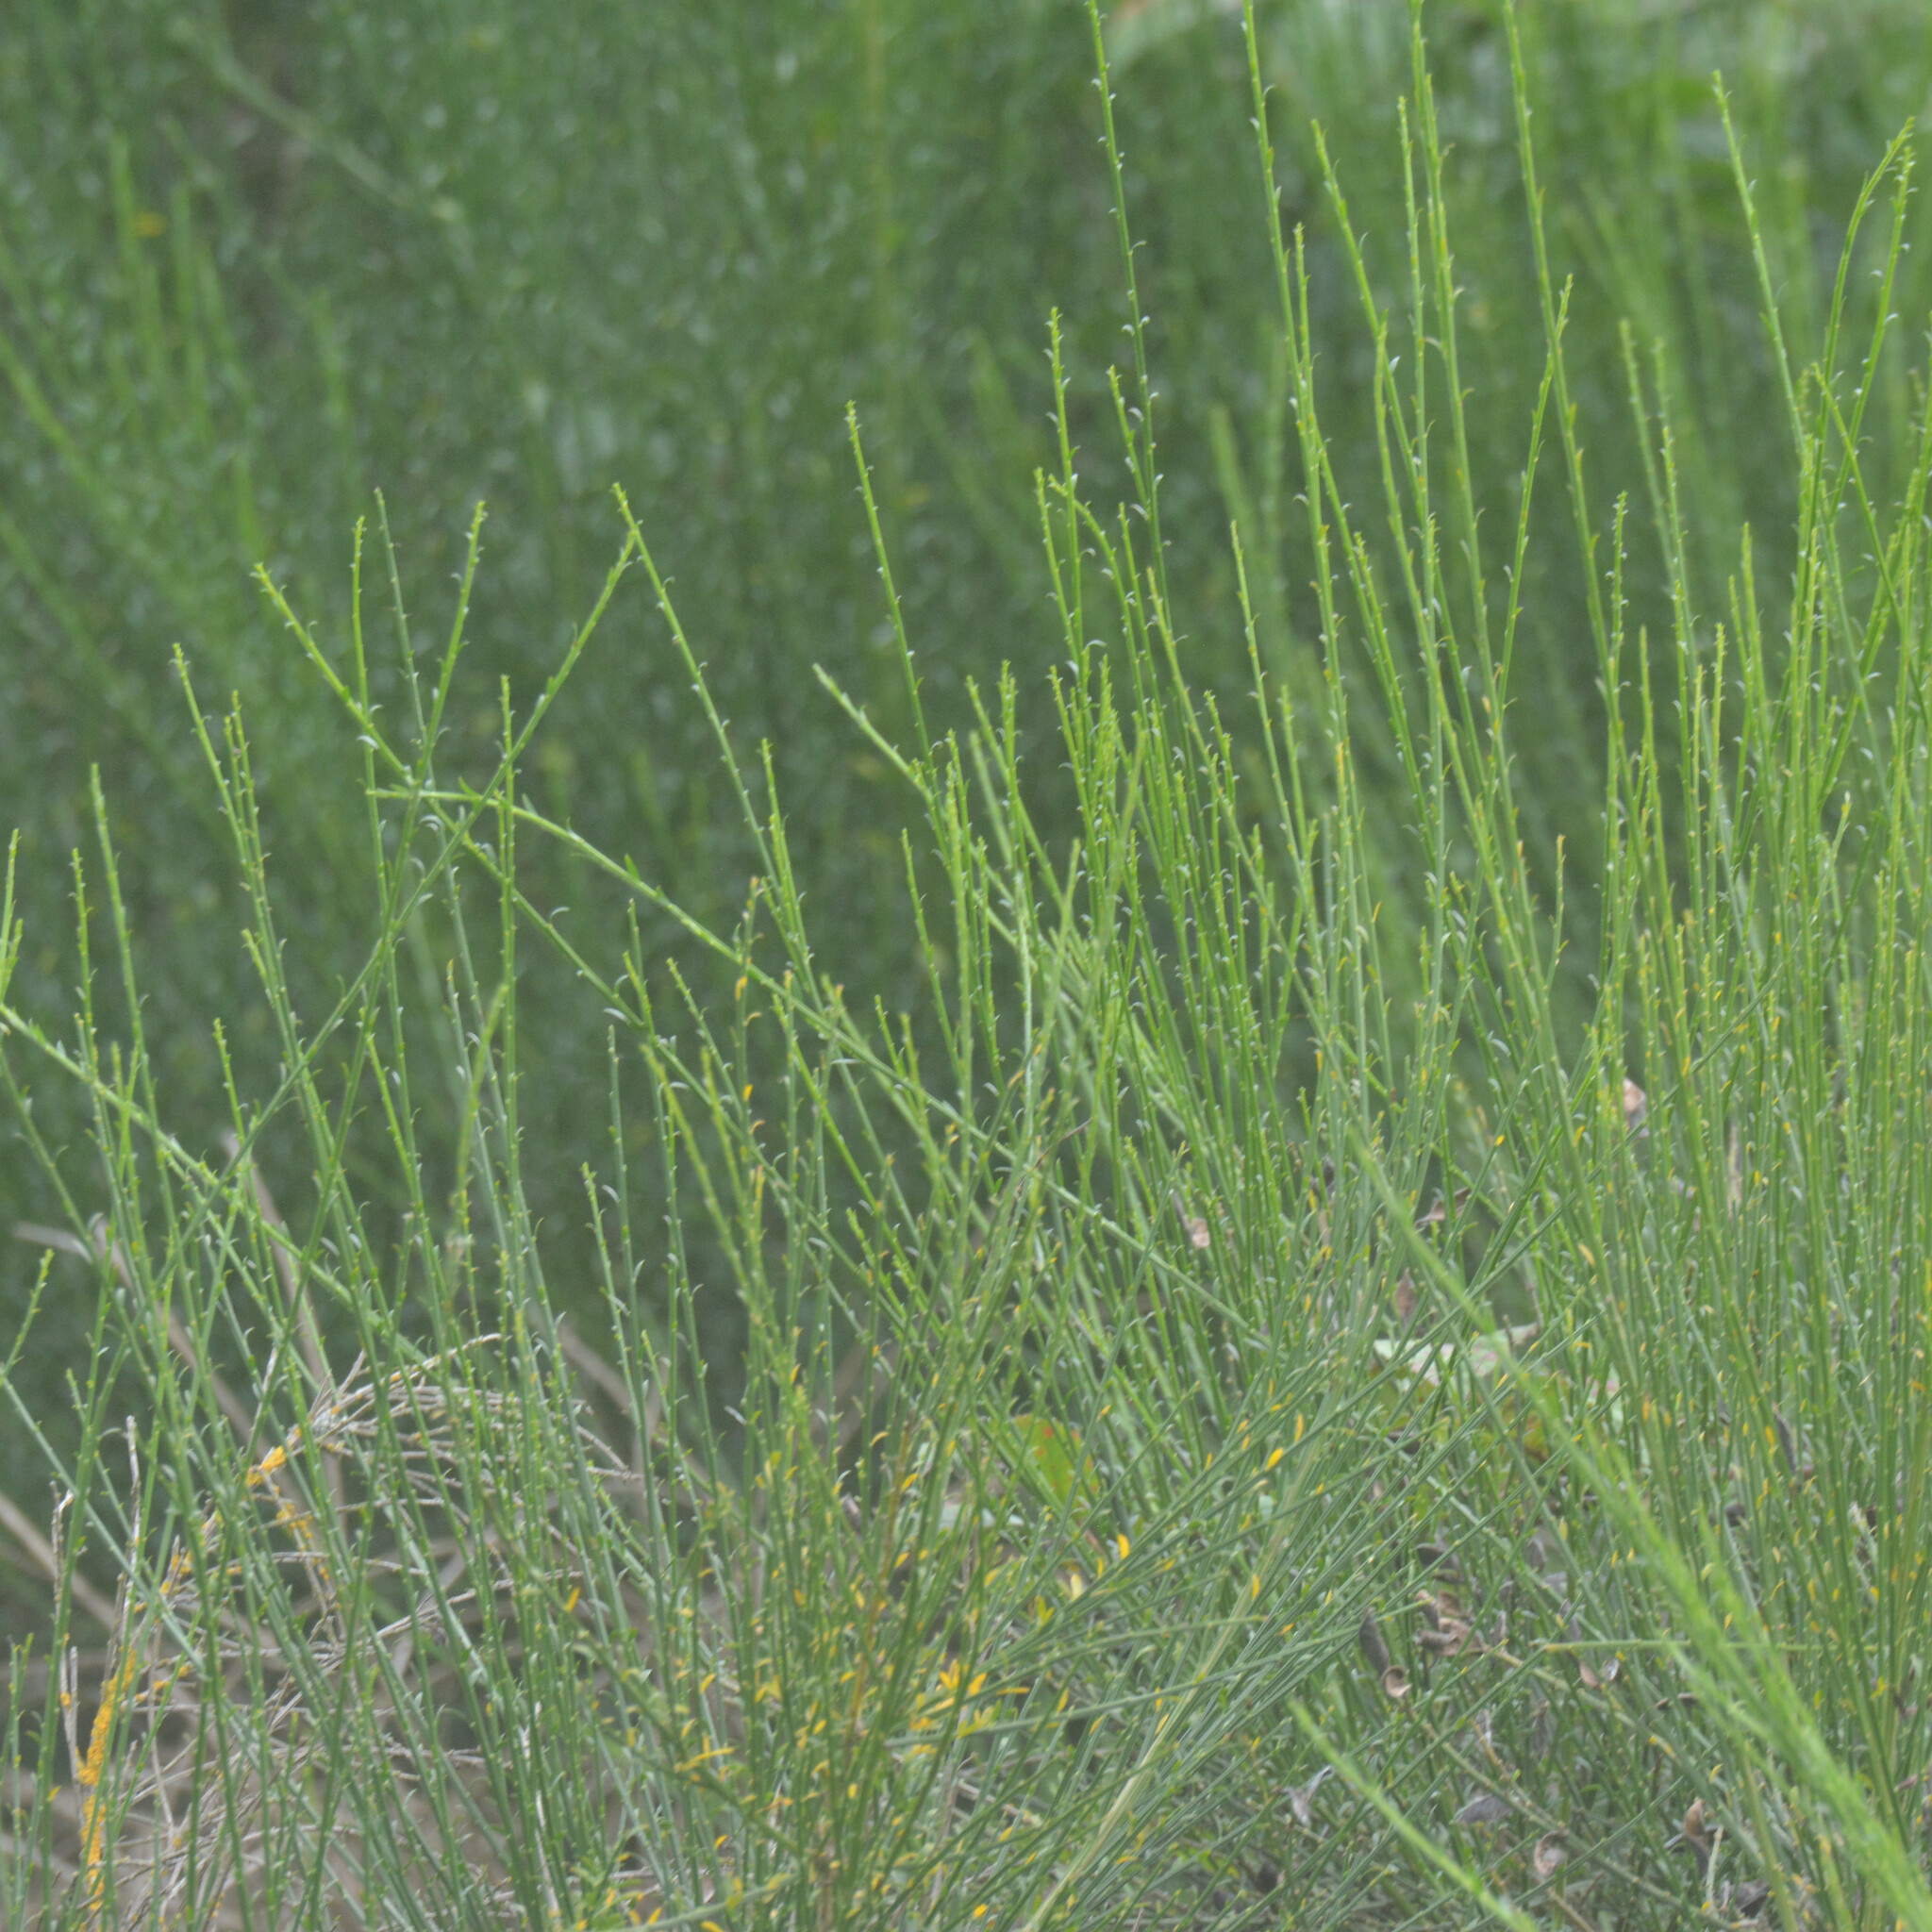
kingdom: Plantae
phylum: Tracheophyta
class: Magnoliopsida
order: Fabales
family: Fabaceae
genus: Cytisus
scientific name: Cytisus scoparius
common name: Scotch broom
